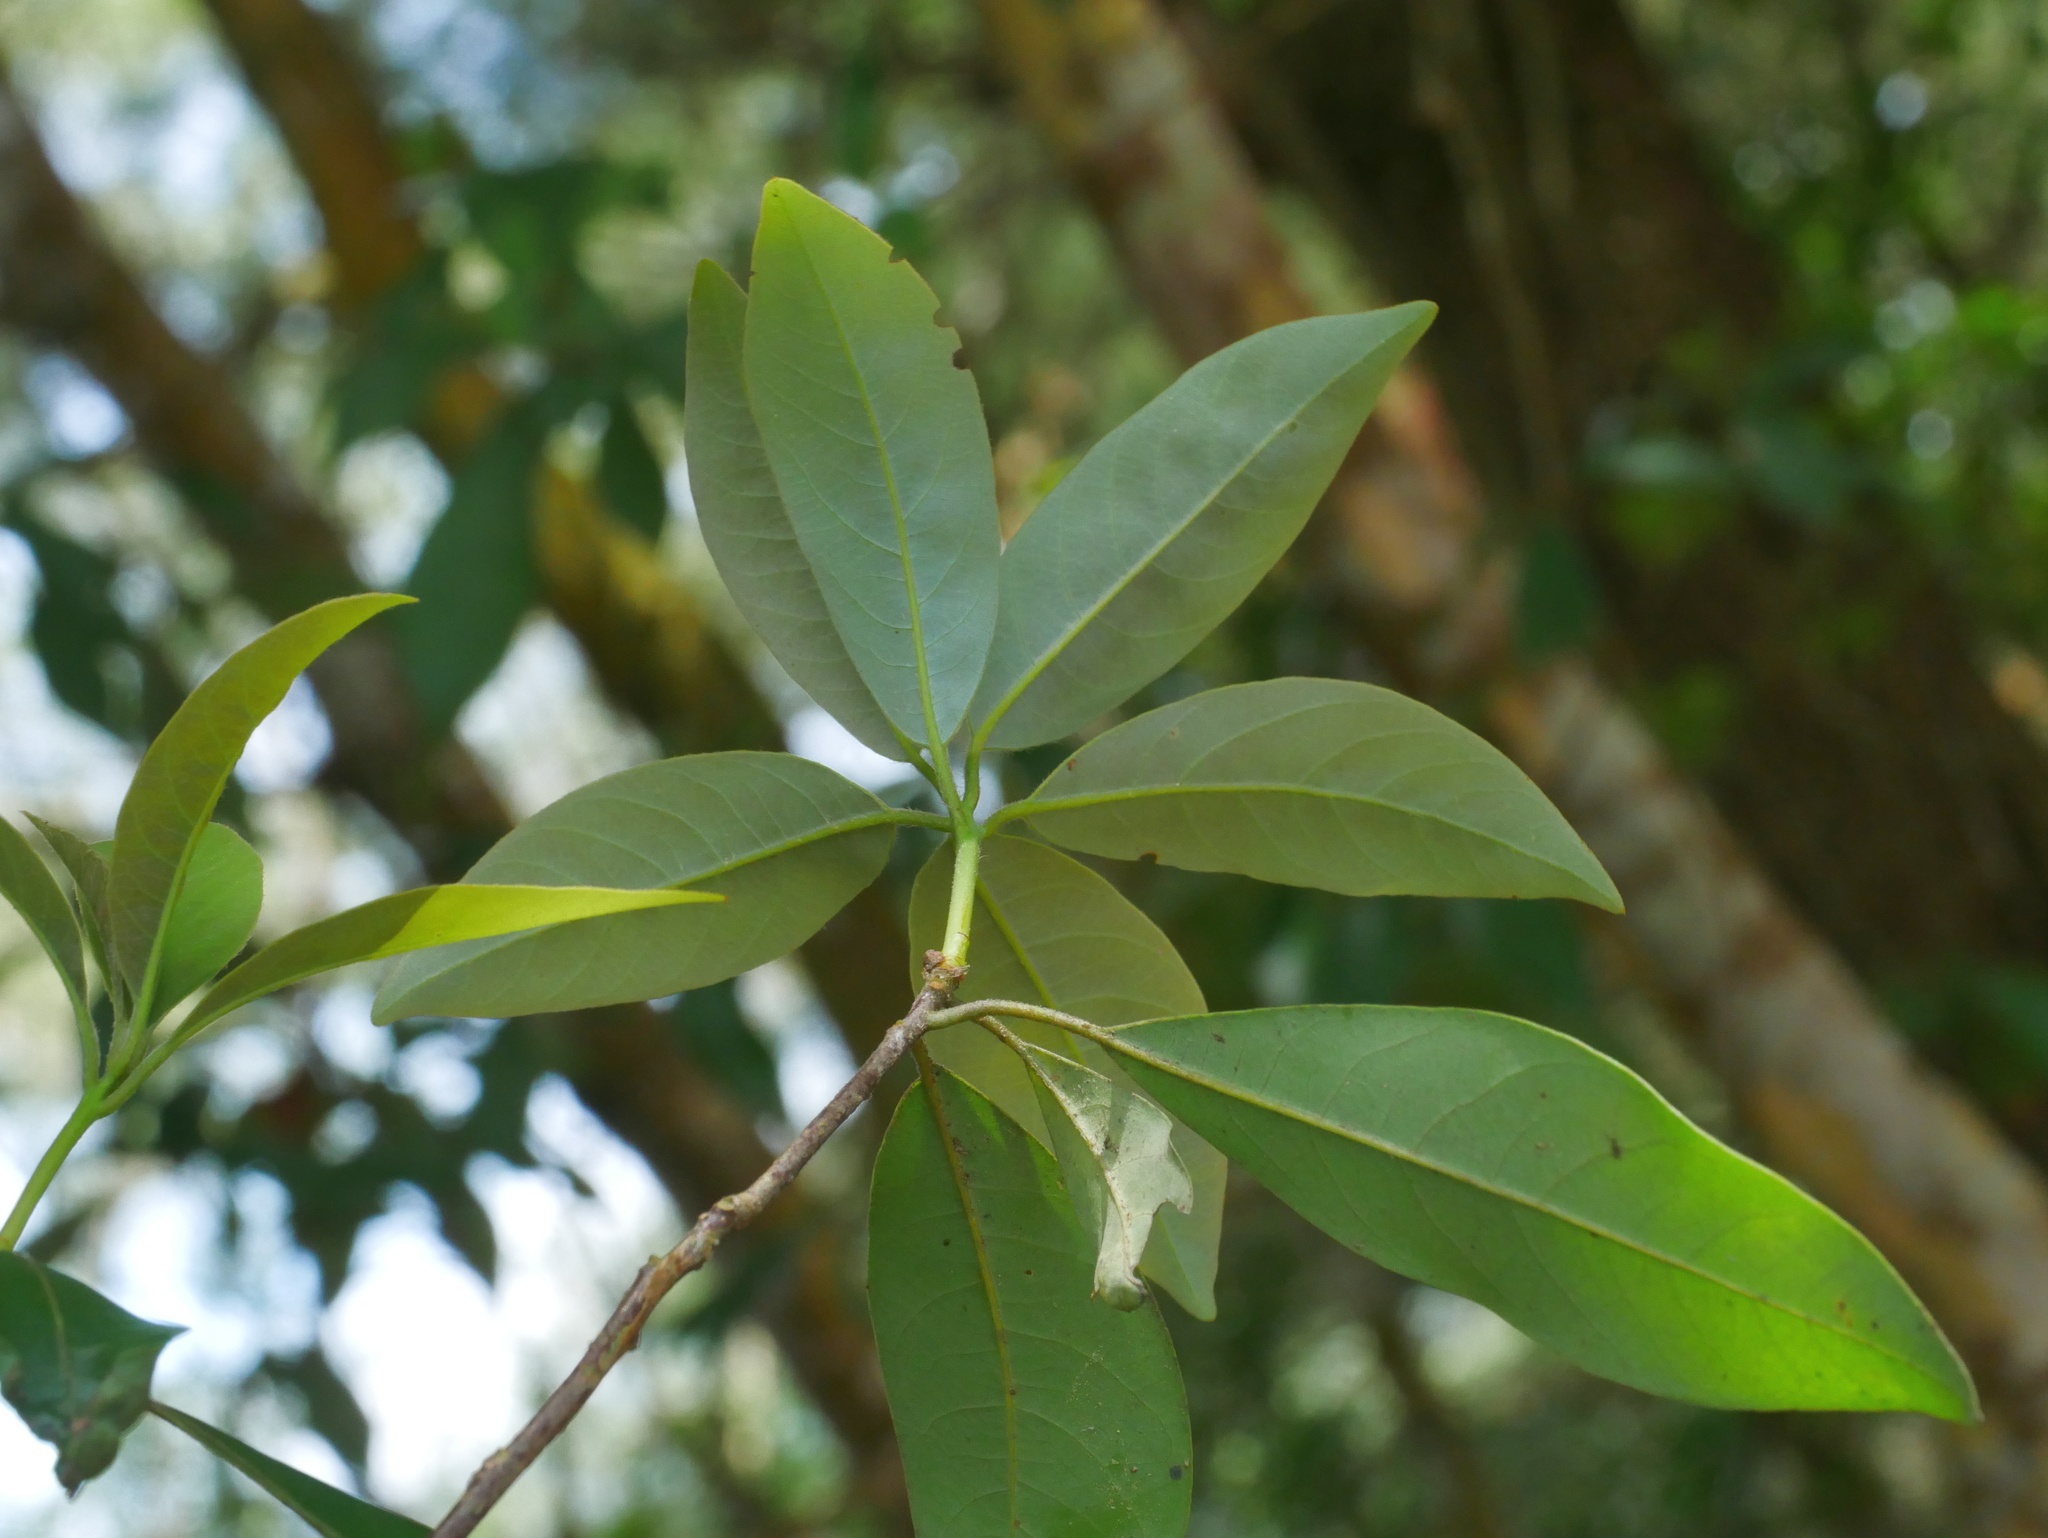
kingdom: Plantae
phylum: Tracheophyta
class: Magnoliopsida
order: Laurales
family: Lauraceae
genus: Litsea
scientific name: Litsea coreana
